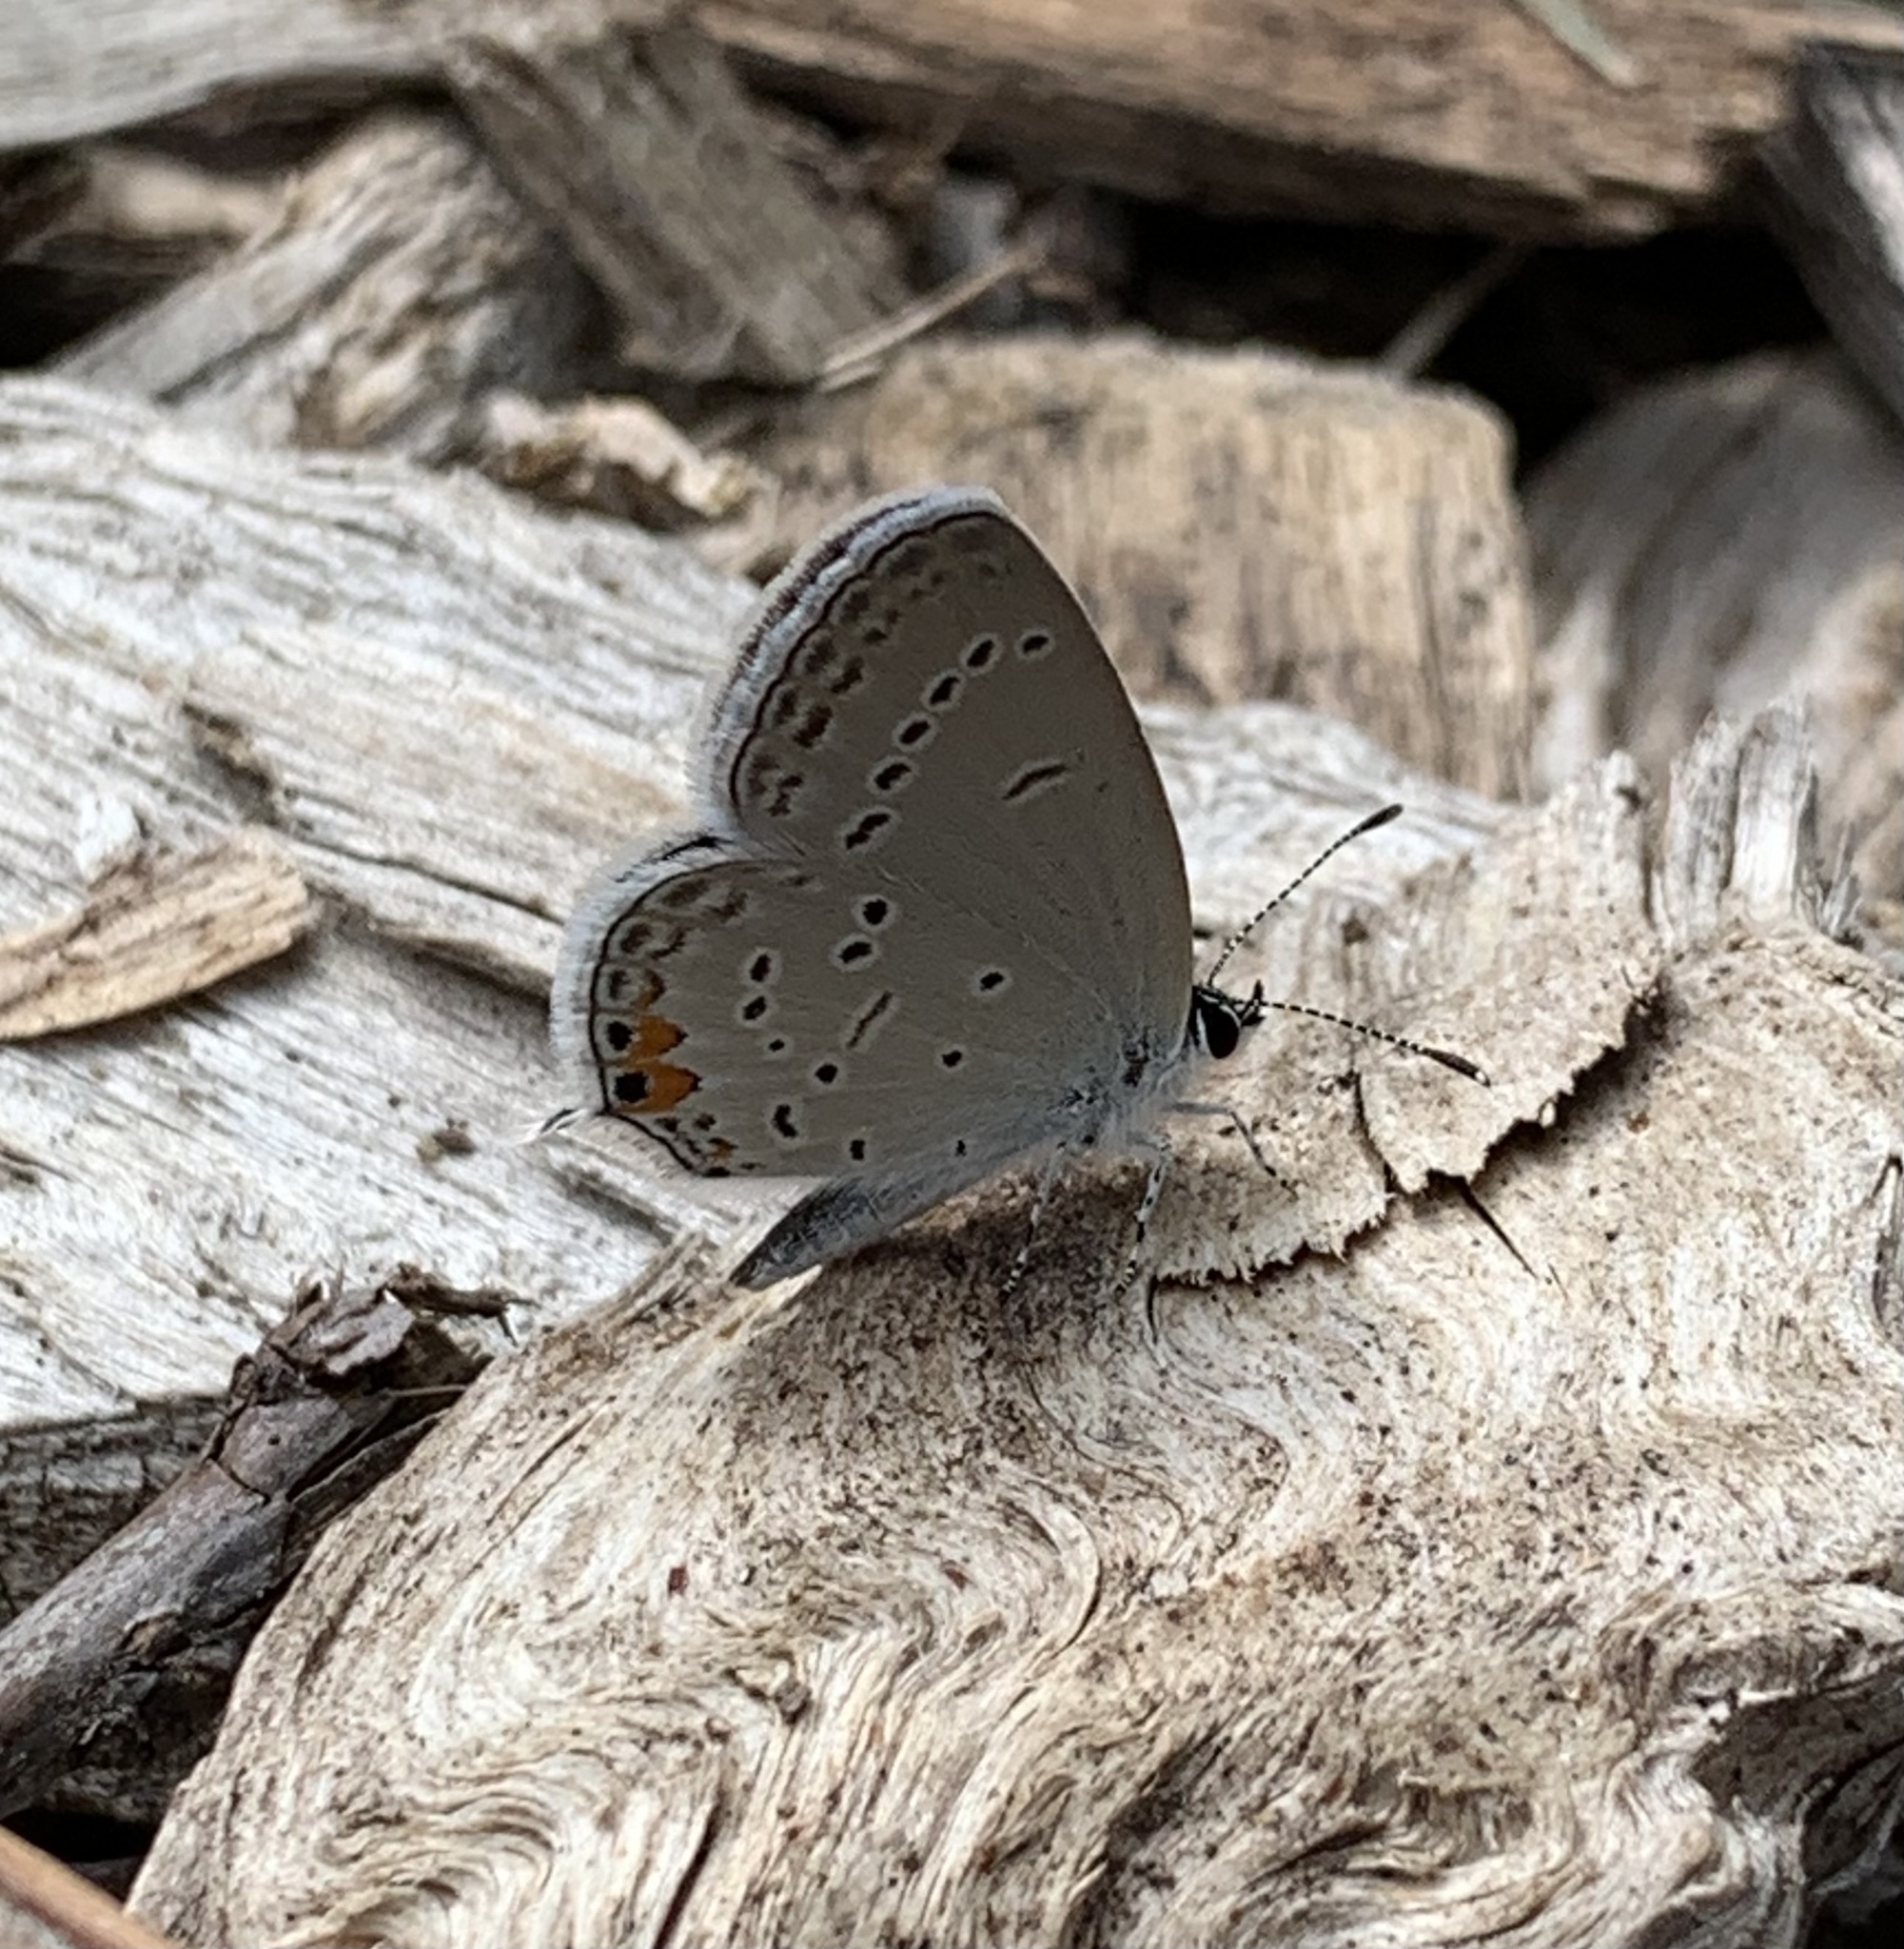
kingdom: Animalia
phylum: Arthropoda
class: Insecta
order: Lepidoptera
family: Lycaenidae
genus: Elkalyce
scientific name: Elkalyce comyntas
